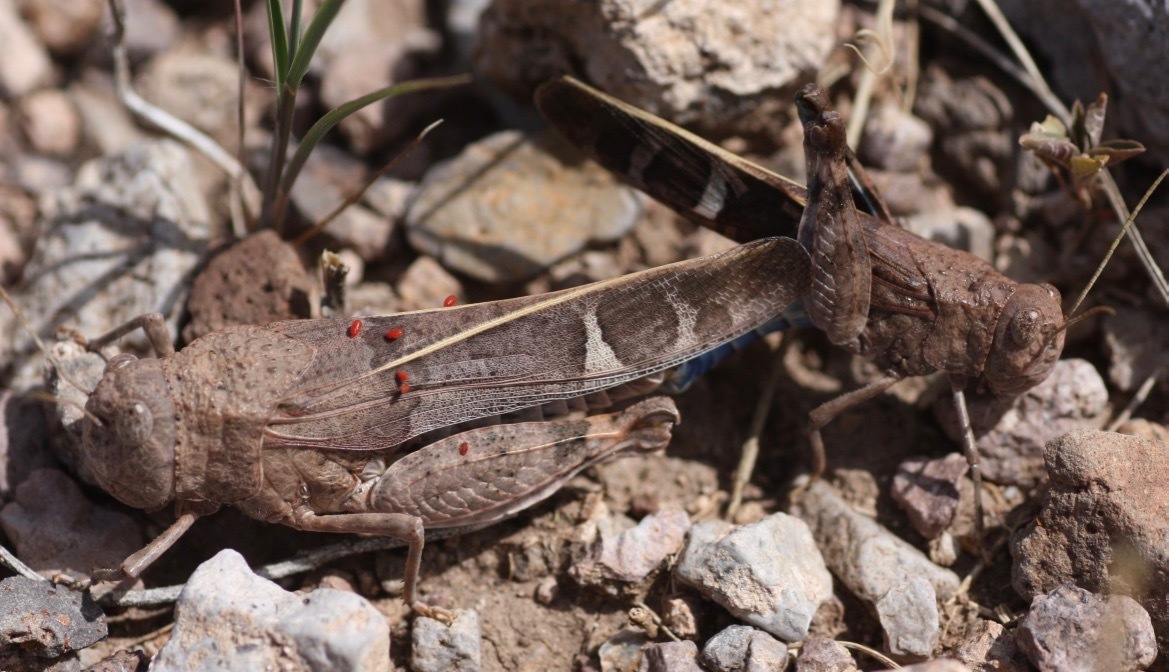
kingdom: Animalia
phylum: Arthropoda
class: Insecta
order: Orthoptera
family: Acrididae
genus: Leprus
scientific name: Leprus intermedius
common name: Saussure's blue-winged grasshopper
